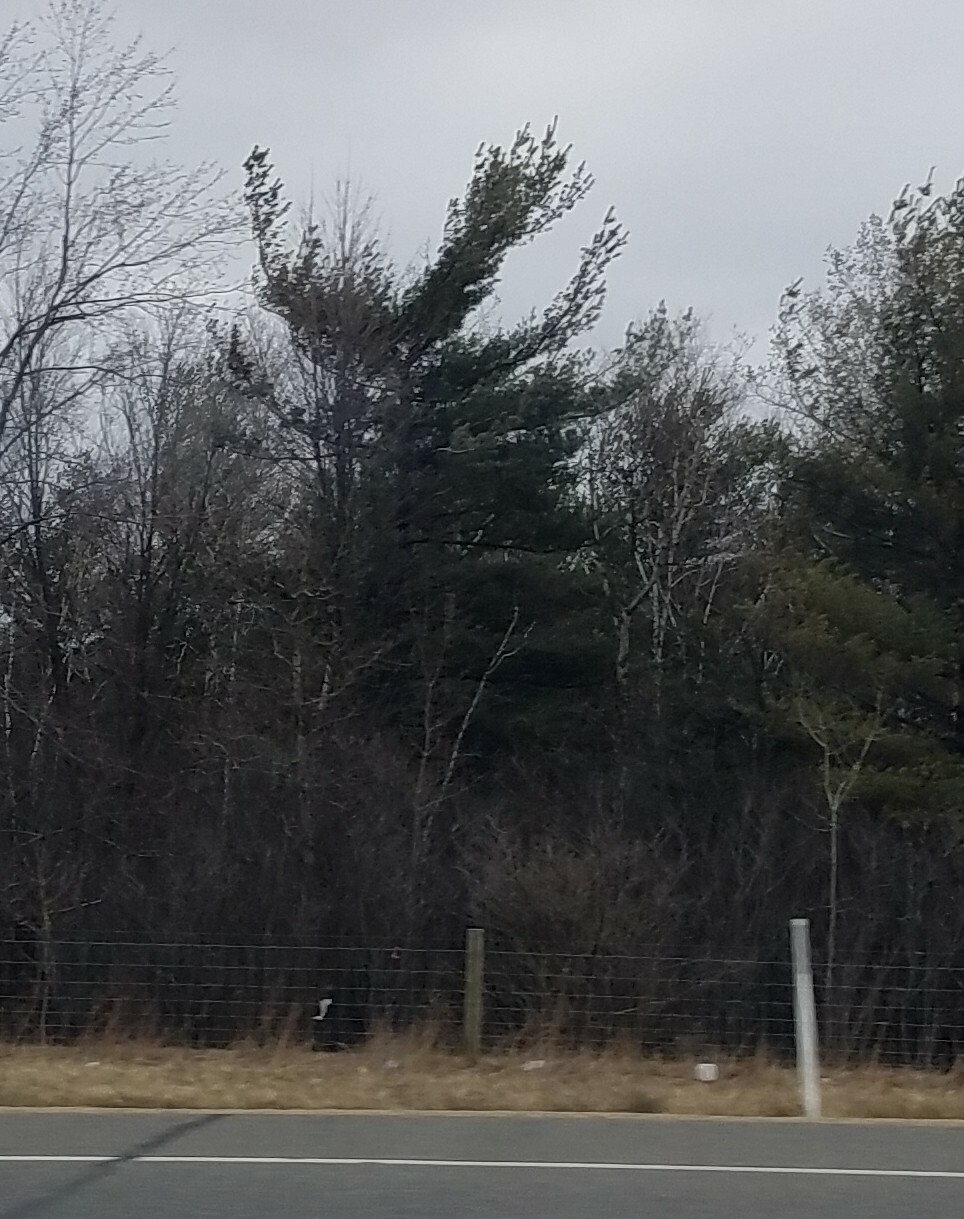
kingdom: Plantae
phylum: Tracheophyta
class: Pinopsida
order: Pinales
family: Pinaceae
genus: Pinus
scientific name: Pinus strobus
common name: Weymouth pine
